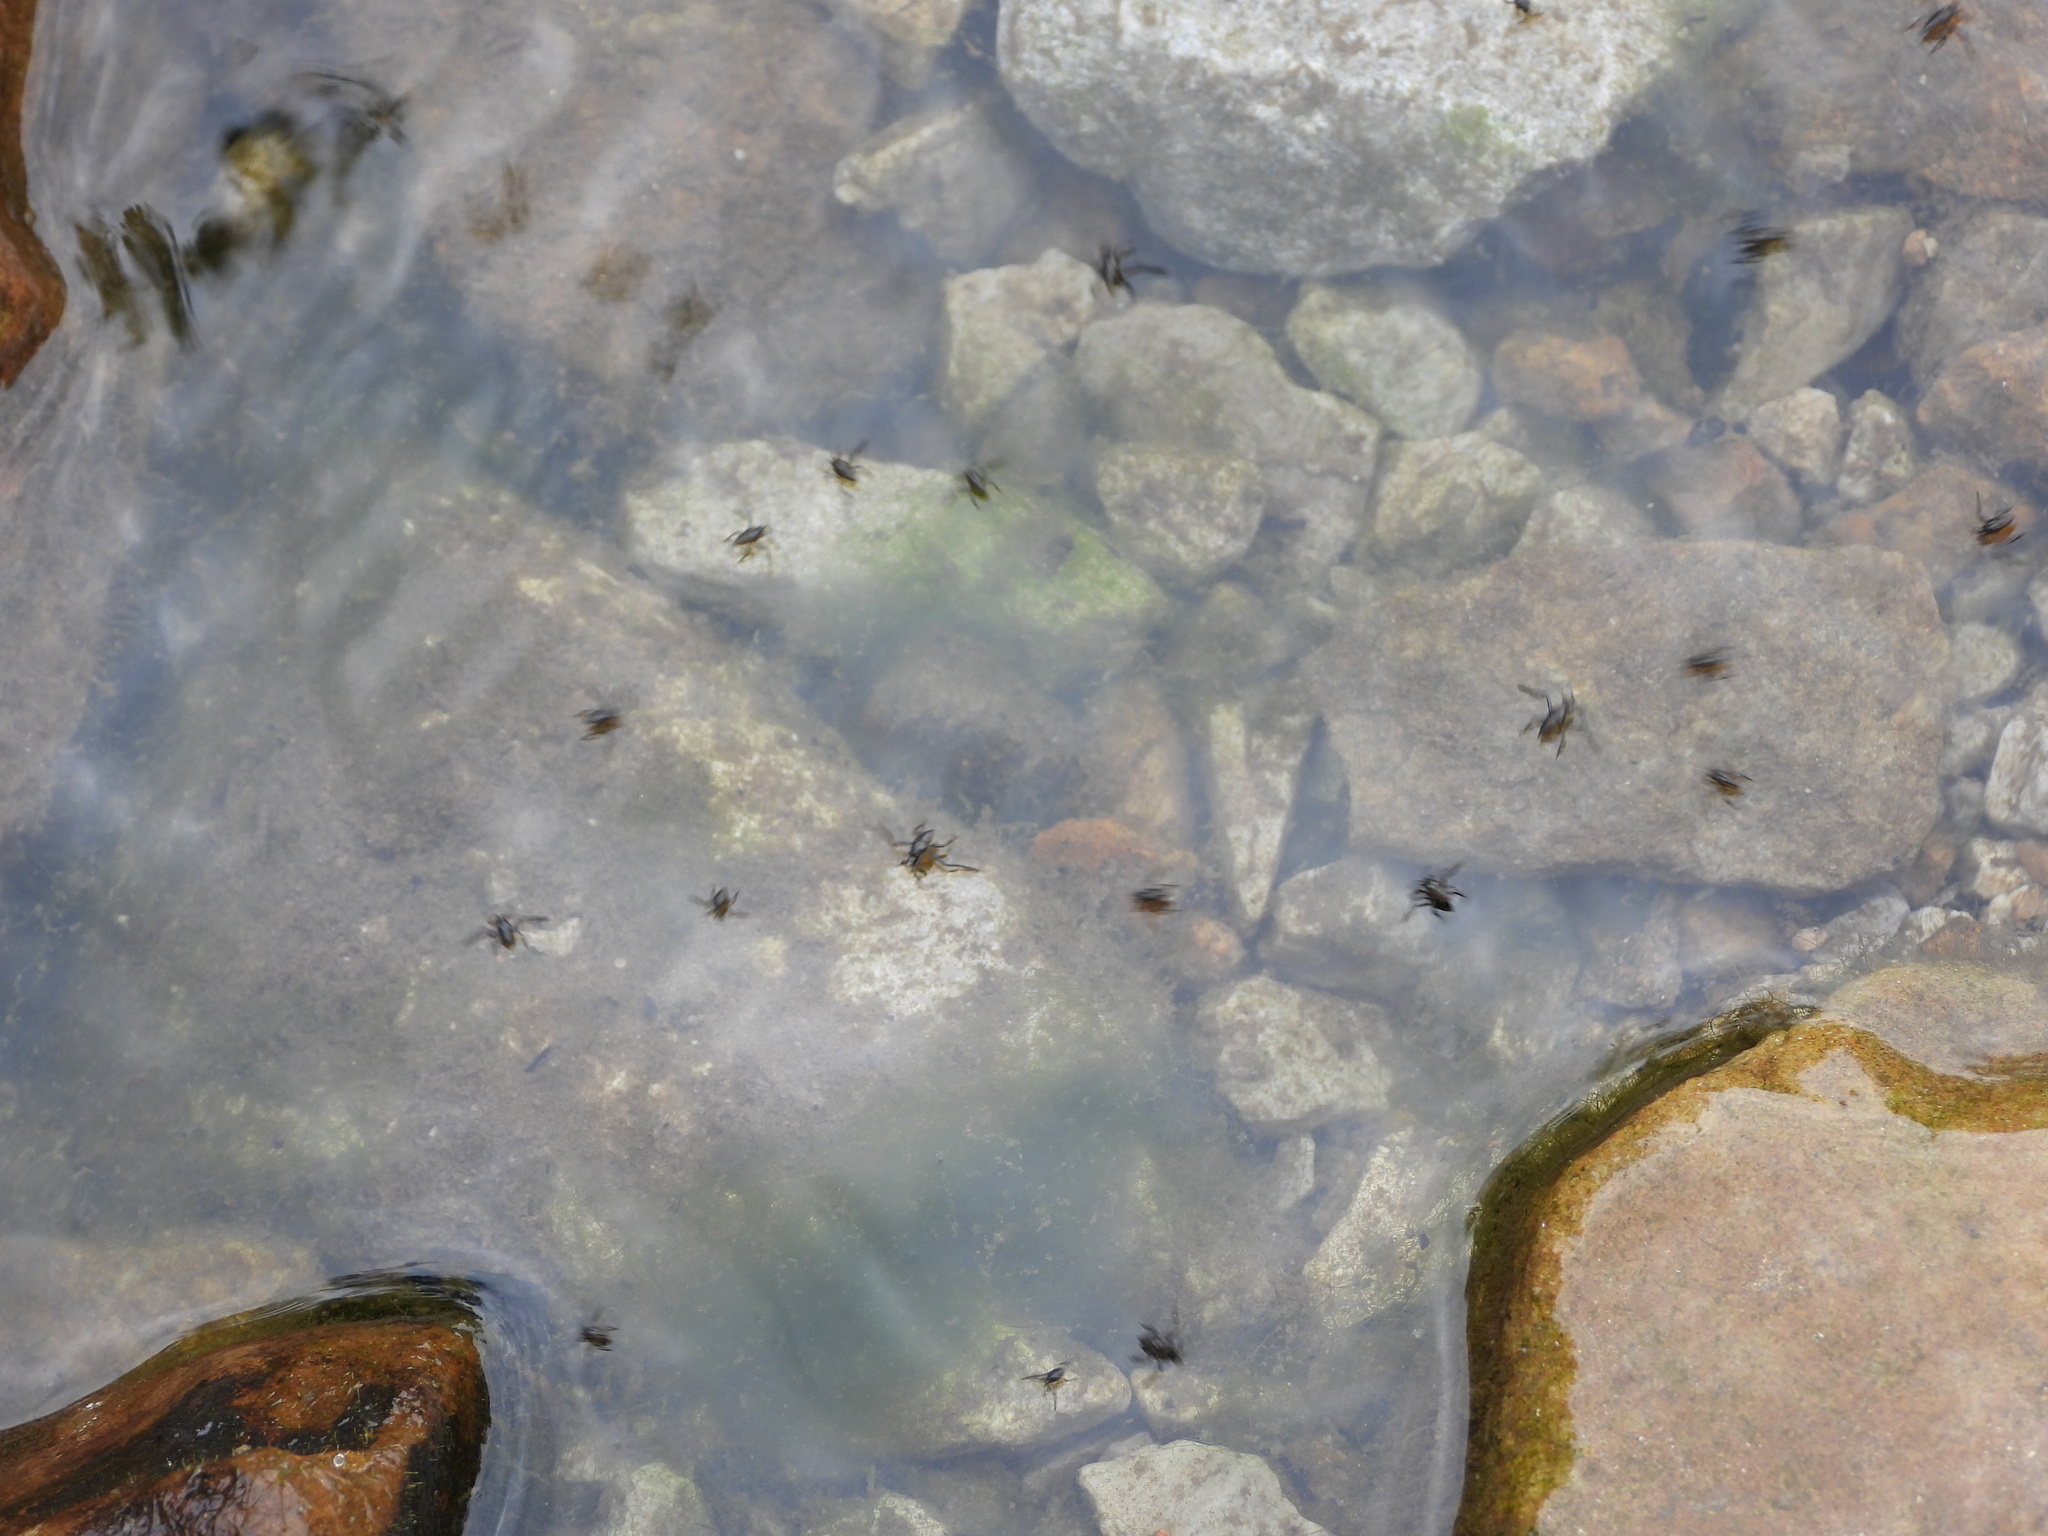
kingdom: Animalia
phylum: Arthropoda
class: Insecta
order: Hemiptera
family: Veliidae
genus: Rhagovelia
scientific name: Rhagovelia
